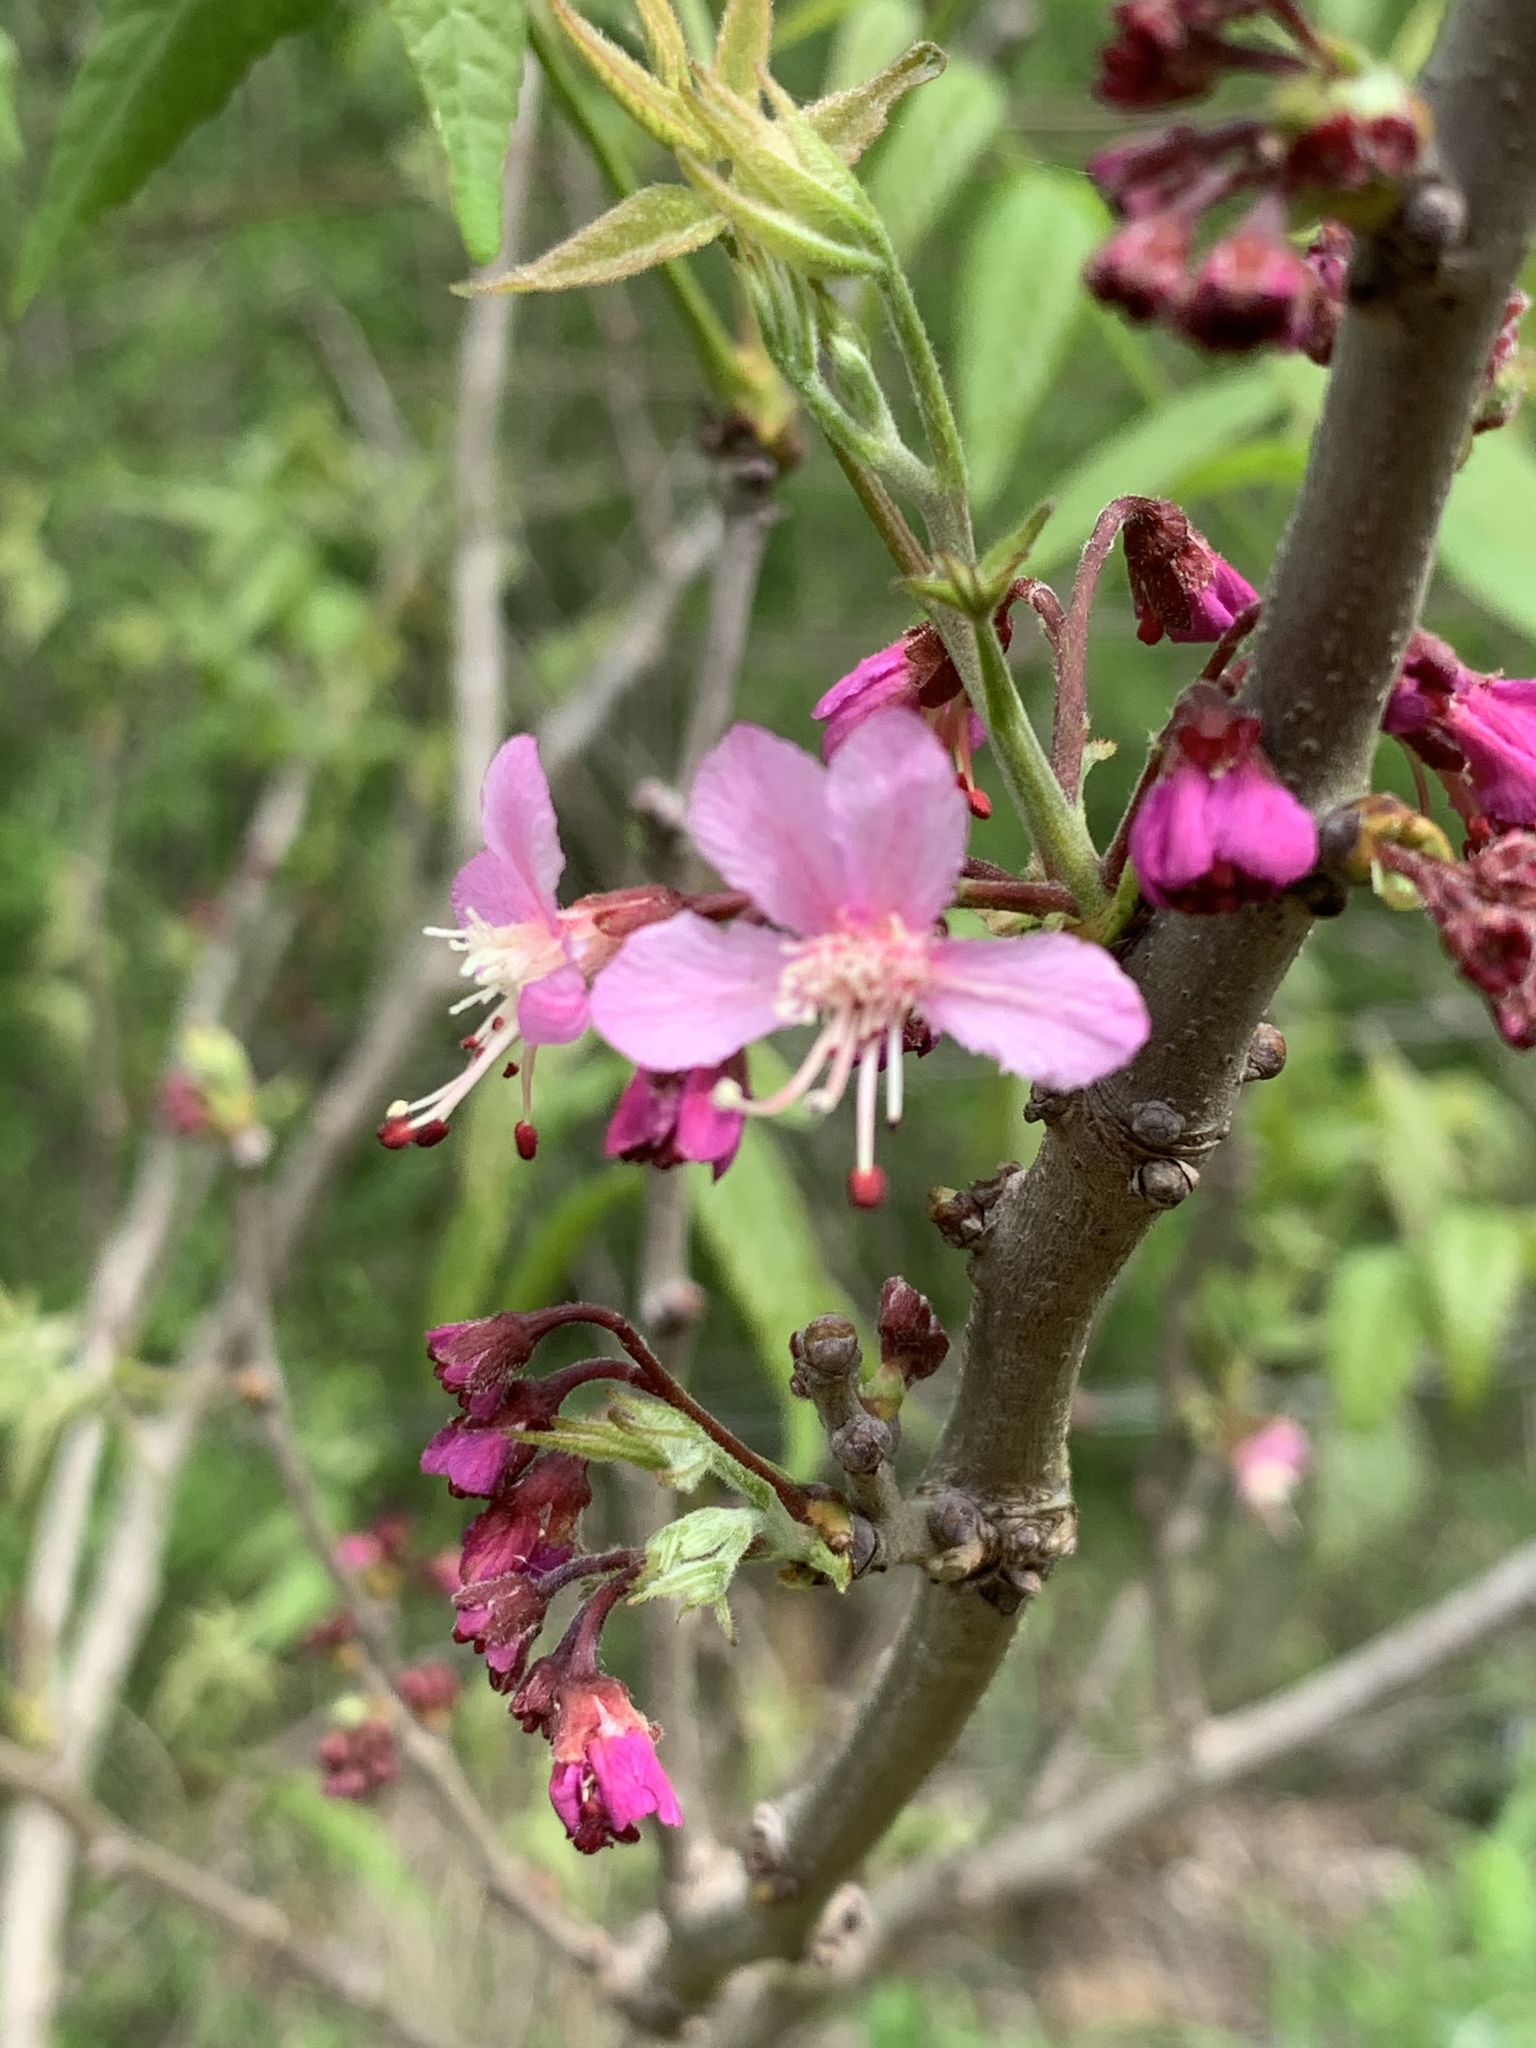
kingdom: Plantae
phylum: Tracheophyta
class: Magnoliopsida
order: Sapindales
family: Sapindaceae
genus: Ungnadia
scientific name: Ungnadia speciosa
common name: Texas-buckeye
